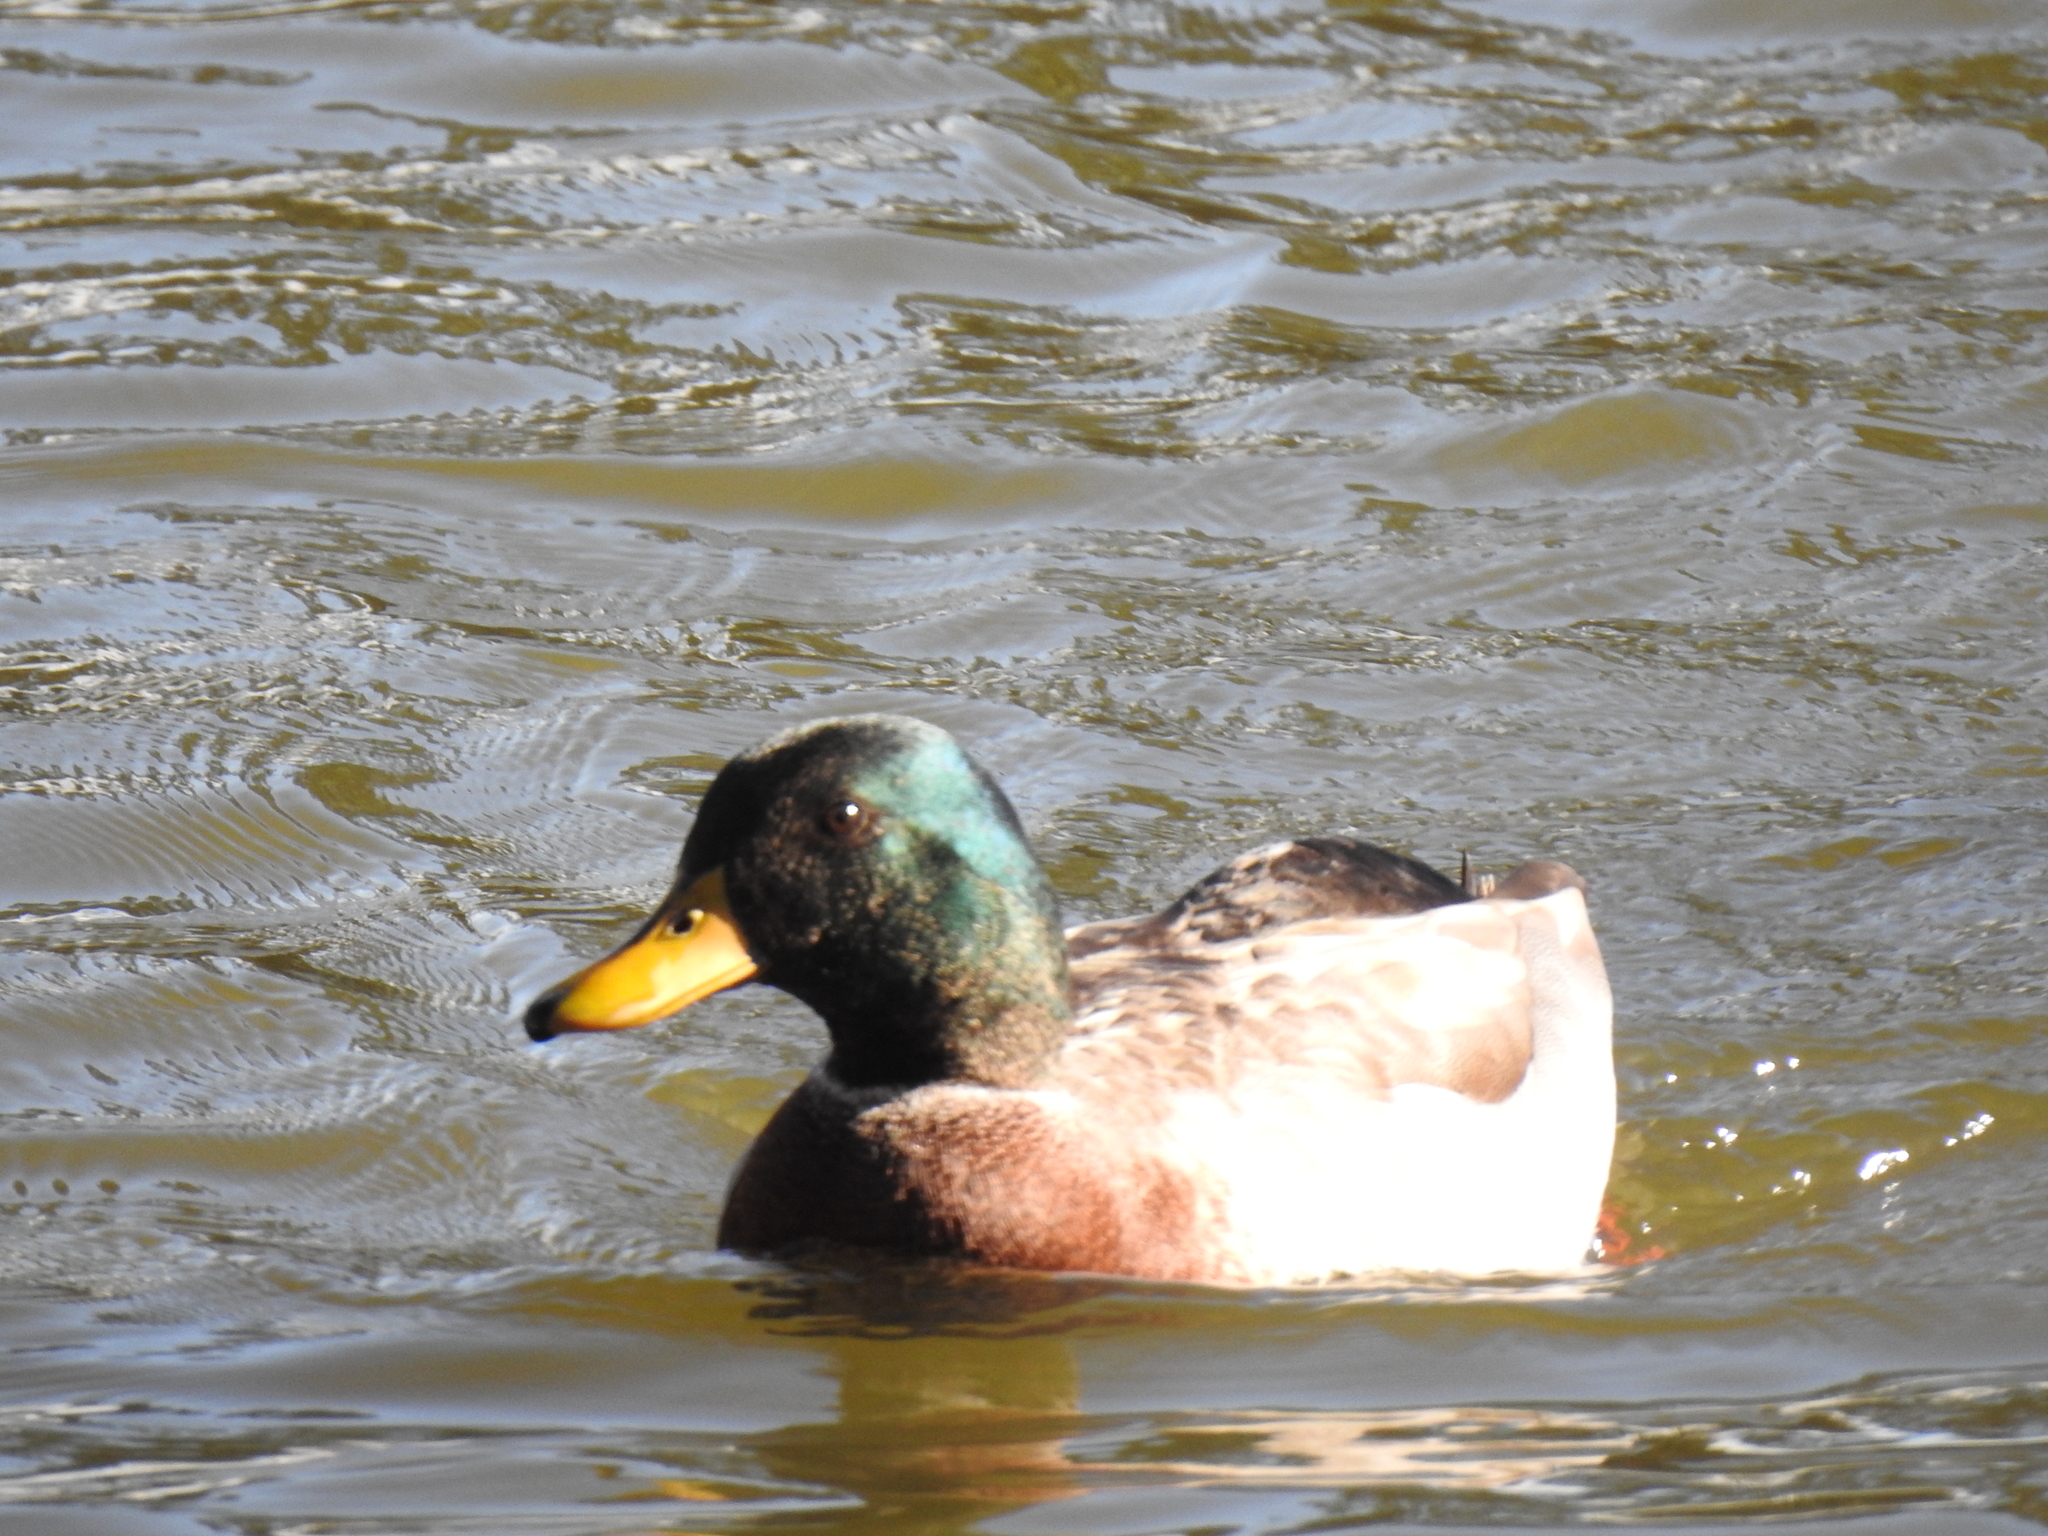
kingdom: Animalia
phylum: Chordata
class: Aves
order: Anseriformes
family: Anatidae
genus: Anas
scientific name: Anas platyrhynchos
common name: Mallard
